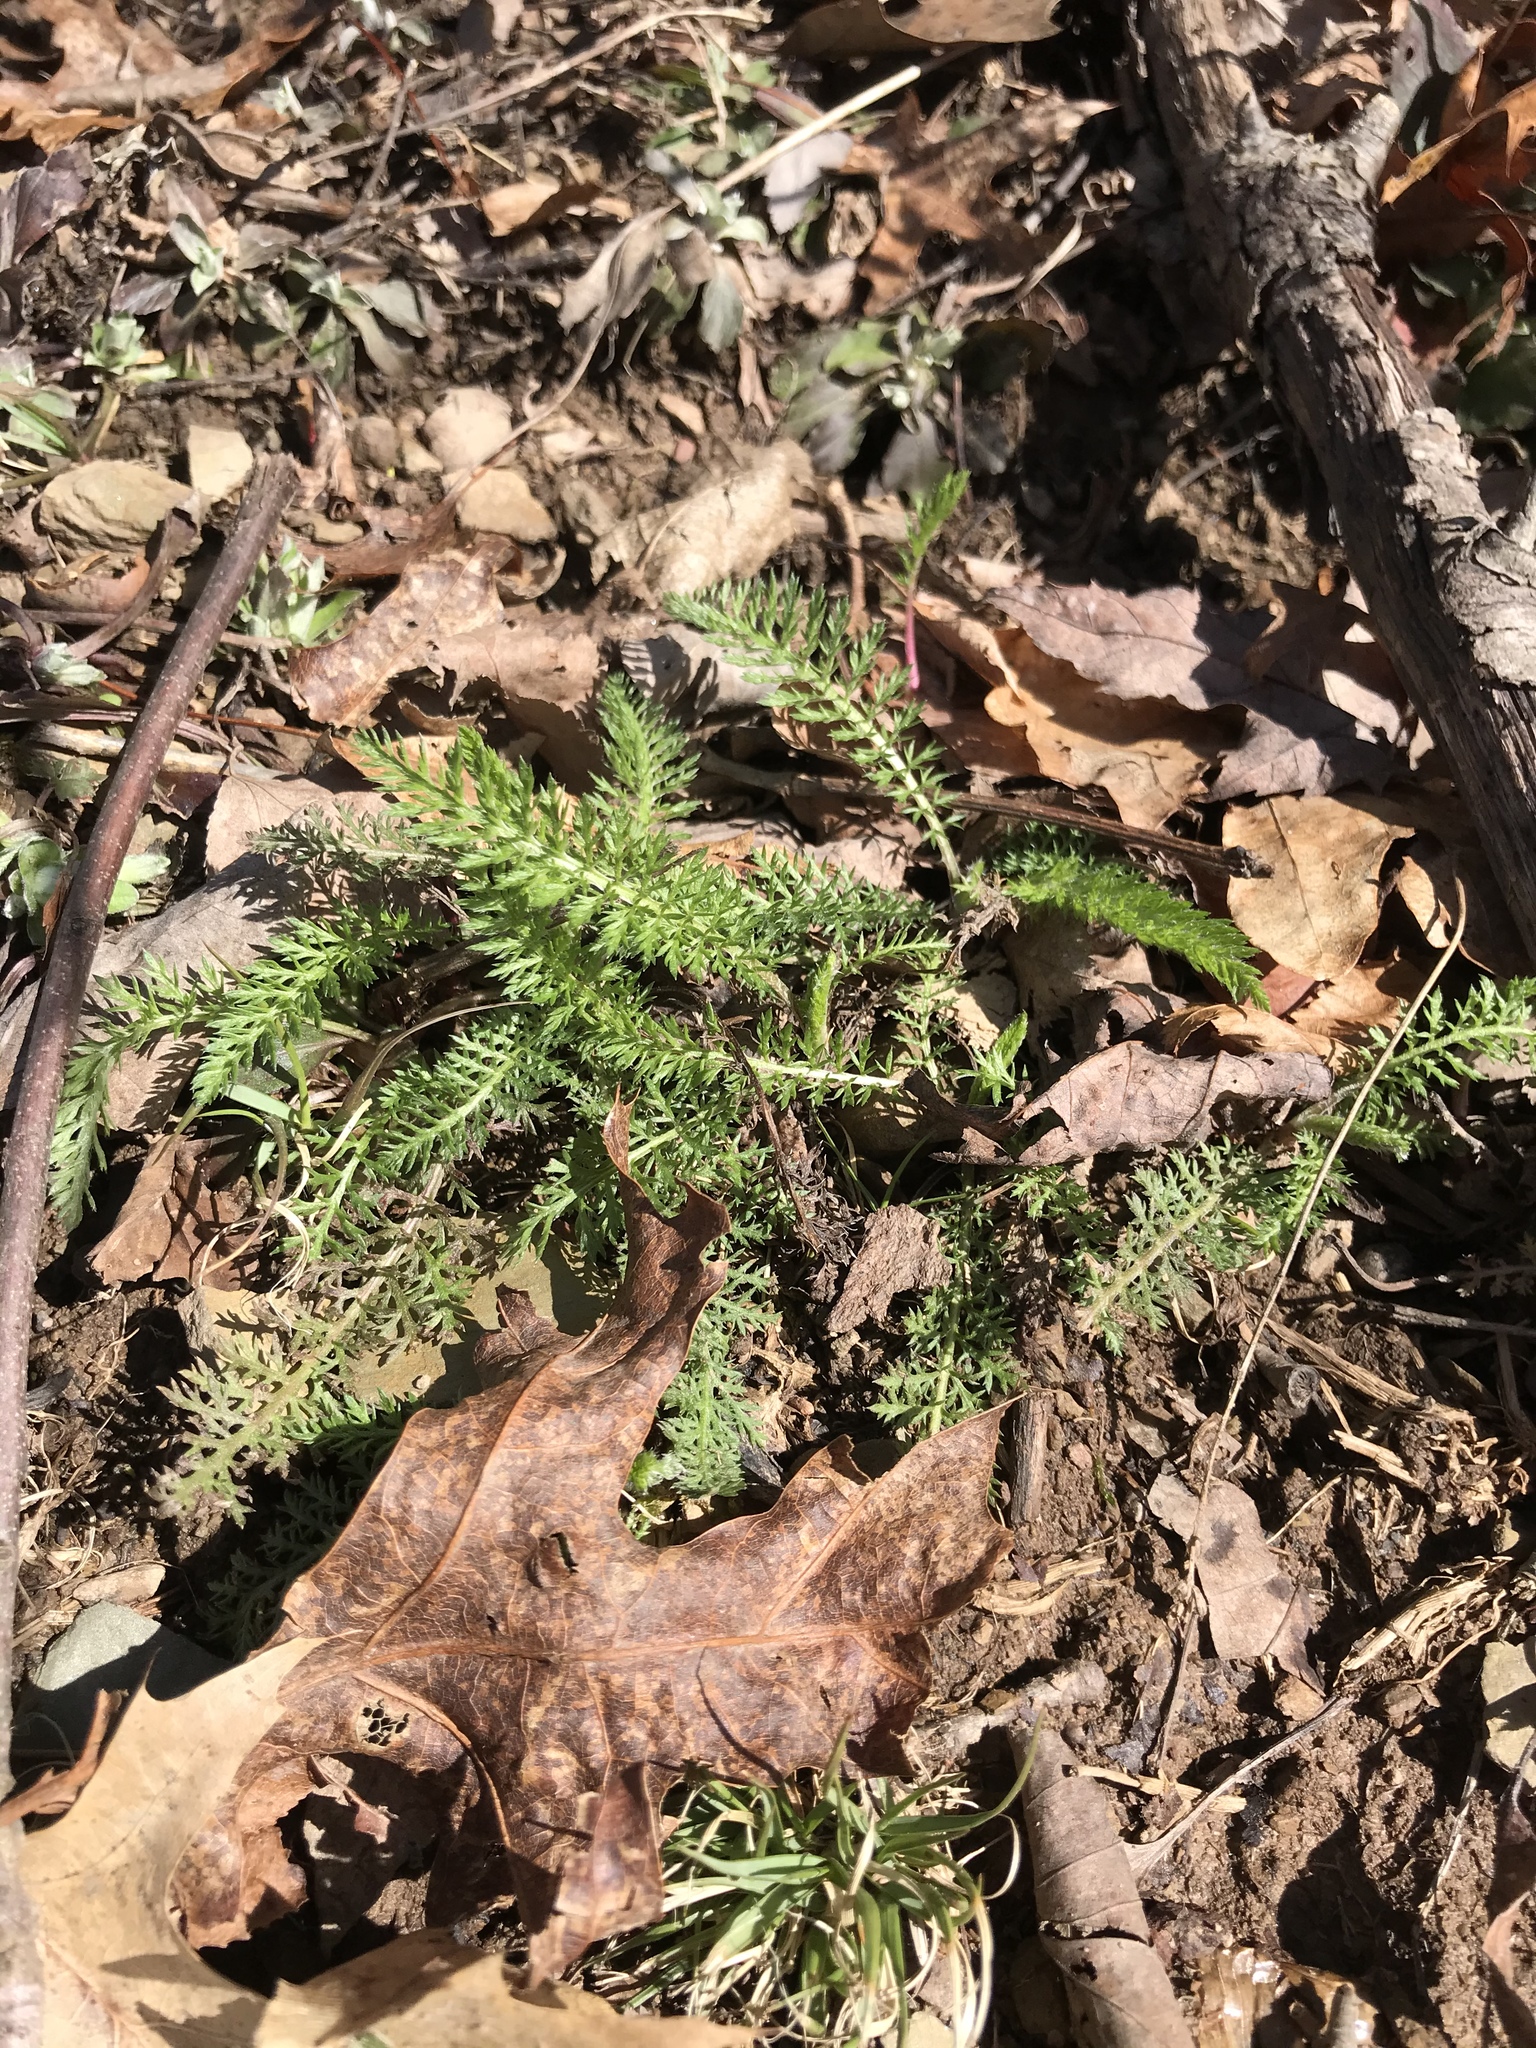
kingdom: Plantae
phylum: Tracheophyta
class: Magnoliopsida
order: Asterales
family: Asteraceae
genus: Achillea
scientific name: Achillea millefolium
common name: Yarrow
